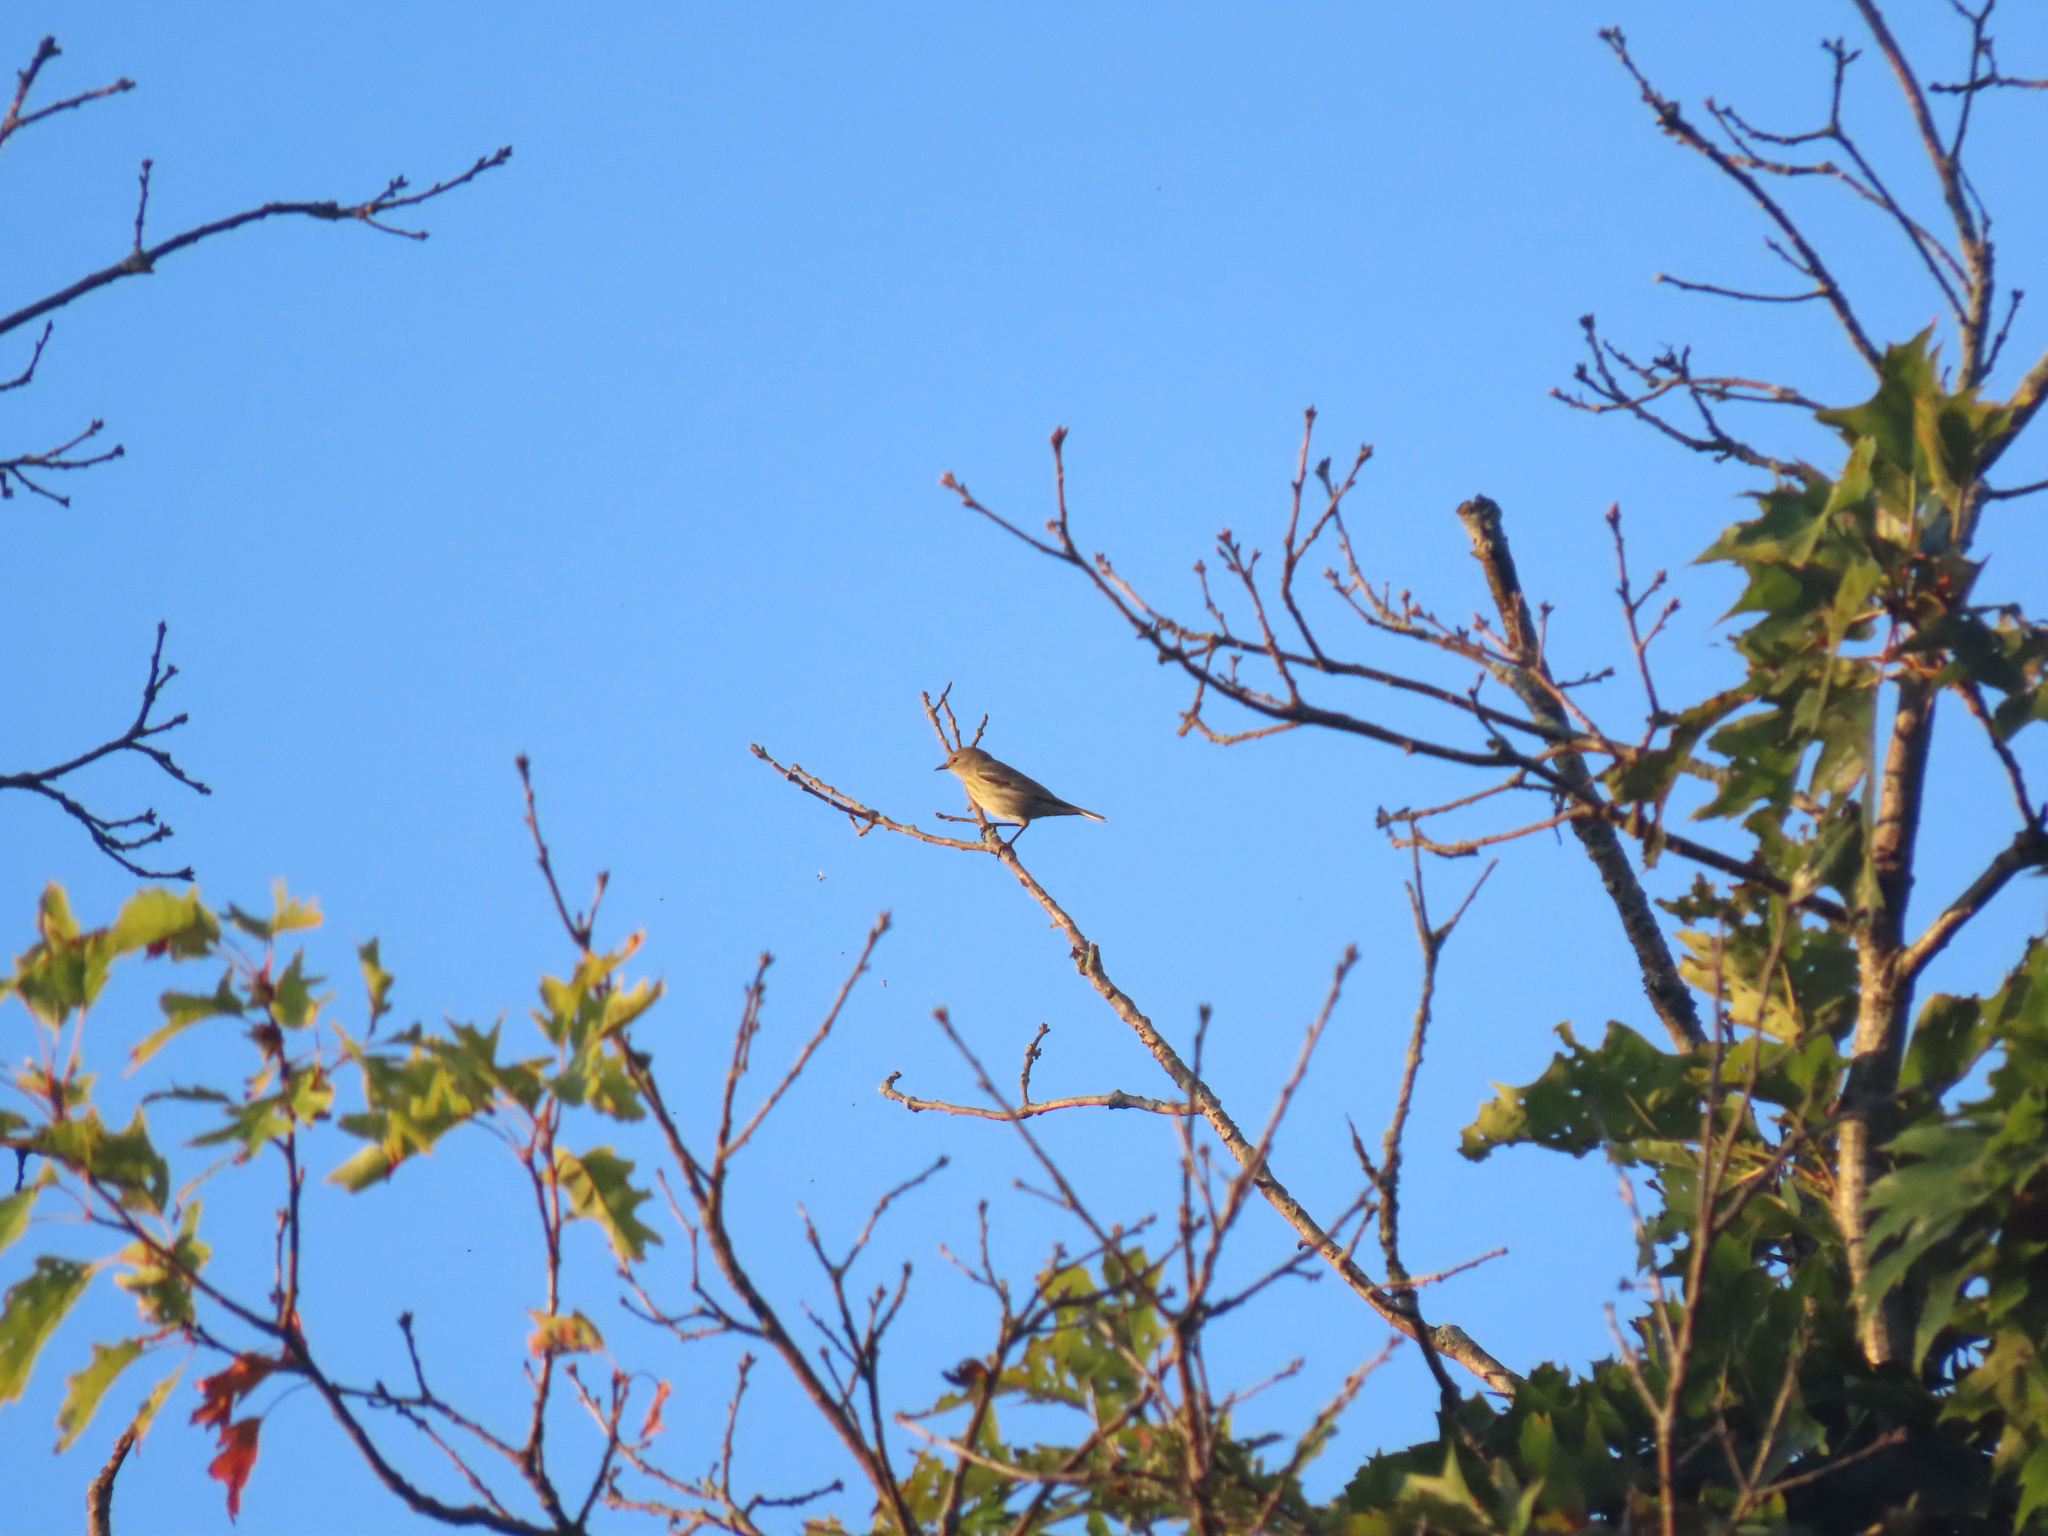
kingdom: Animalia
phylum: Chordata
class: Aves
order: Passeriformes
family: Parulidae
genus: Setophaga
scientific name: Setophaga tigrina
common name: Cape may warbler
